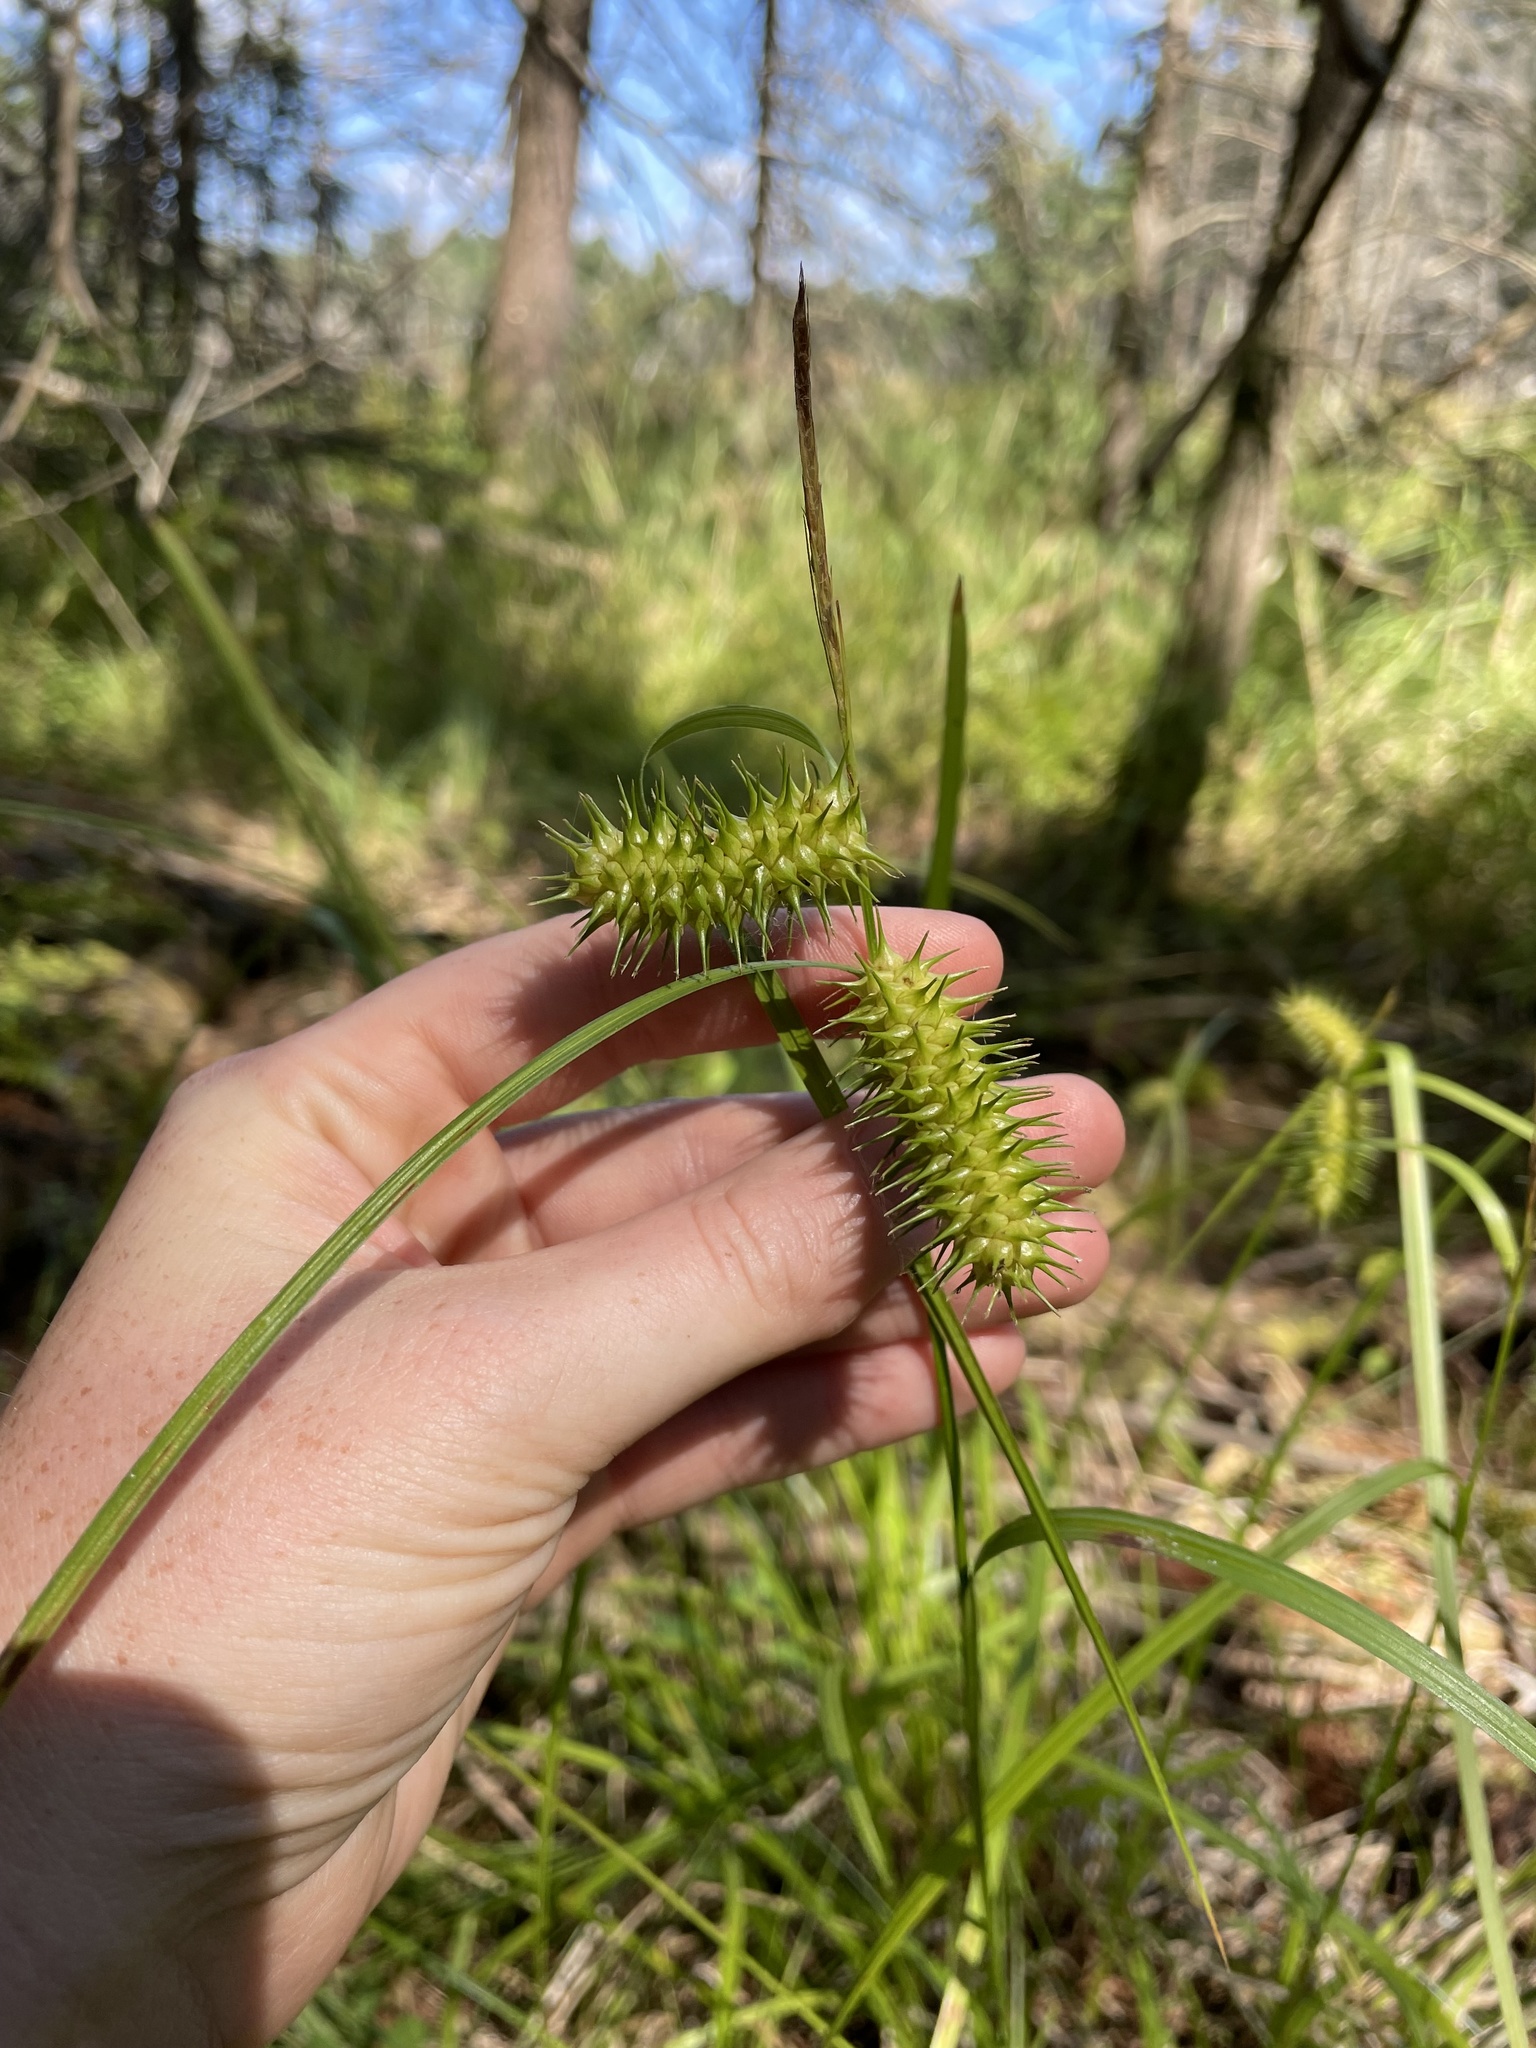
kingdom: Plantae
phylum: Tracheophyta
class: Liliopsida
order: Poales
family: Cyperaceae
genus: Carex
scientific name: Carex lurida
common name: Sallow sedge
